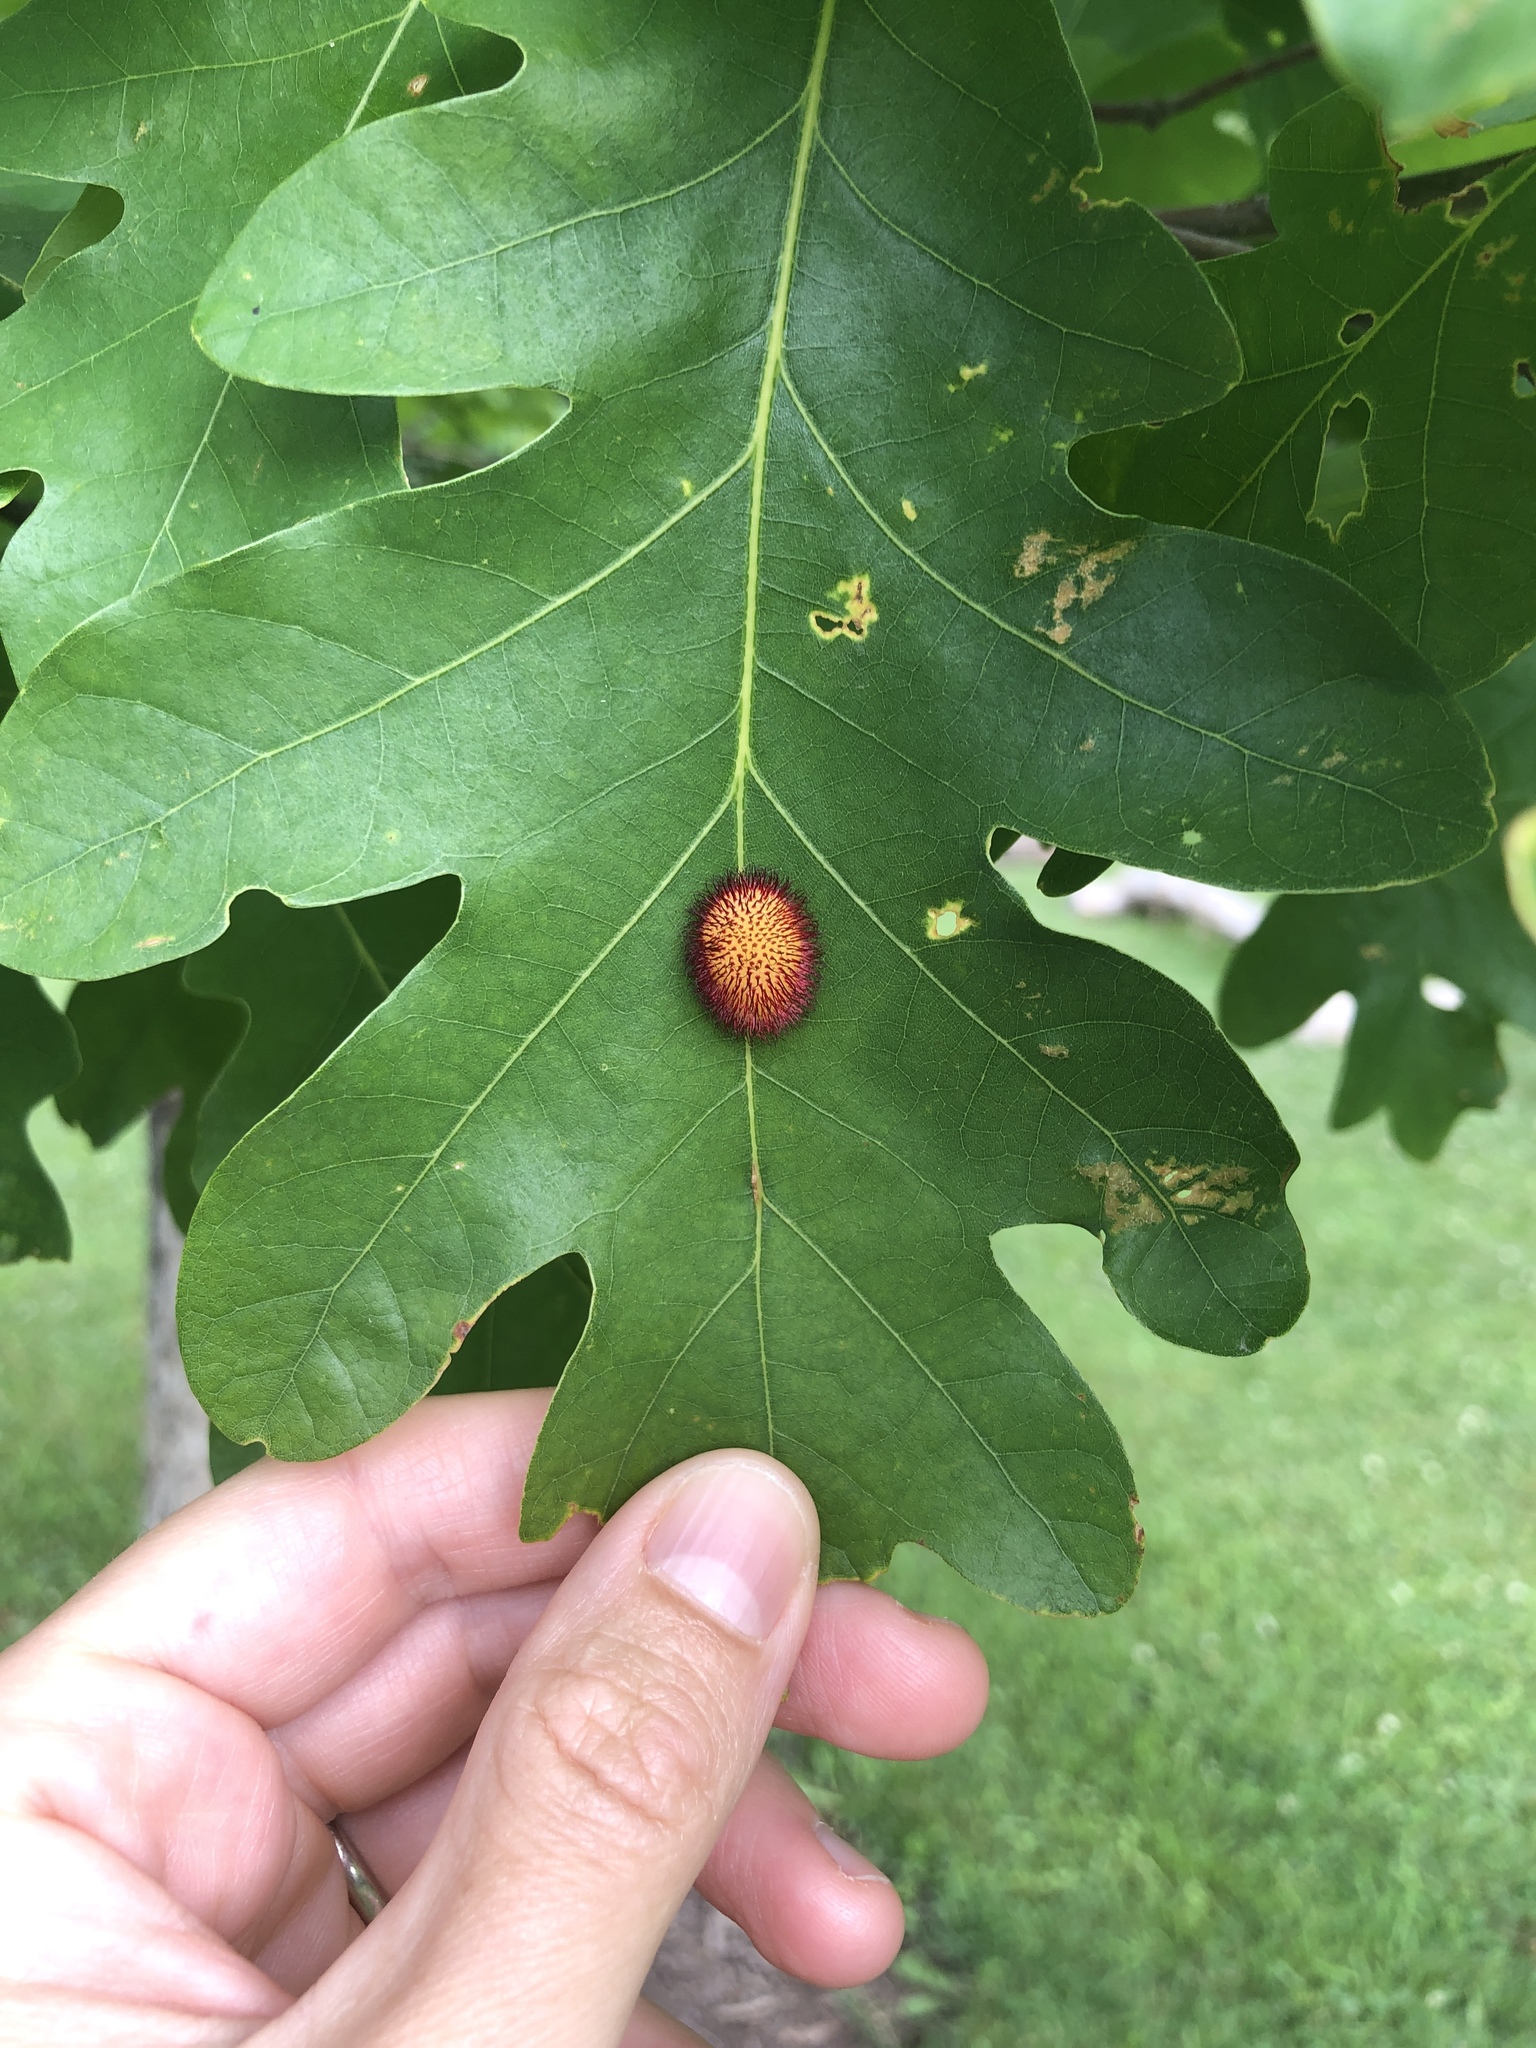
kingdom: Animalia
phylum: Arthropoda
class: Insecta
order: Hymenoptera
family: Cynipidae
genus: Acraspis
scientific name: Acraspis erinacei
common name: Hedgehog gall wasp
